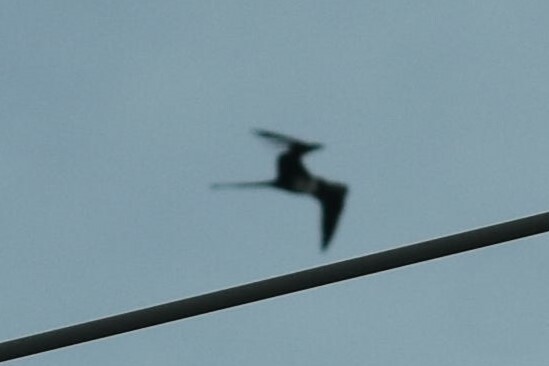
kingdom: Animalia
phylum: Chordata
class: Aves
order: Suliformes
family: Fregatidae
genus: Fregata
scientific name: Fregata magnificens
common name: Magnificent frigatebird
